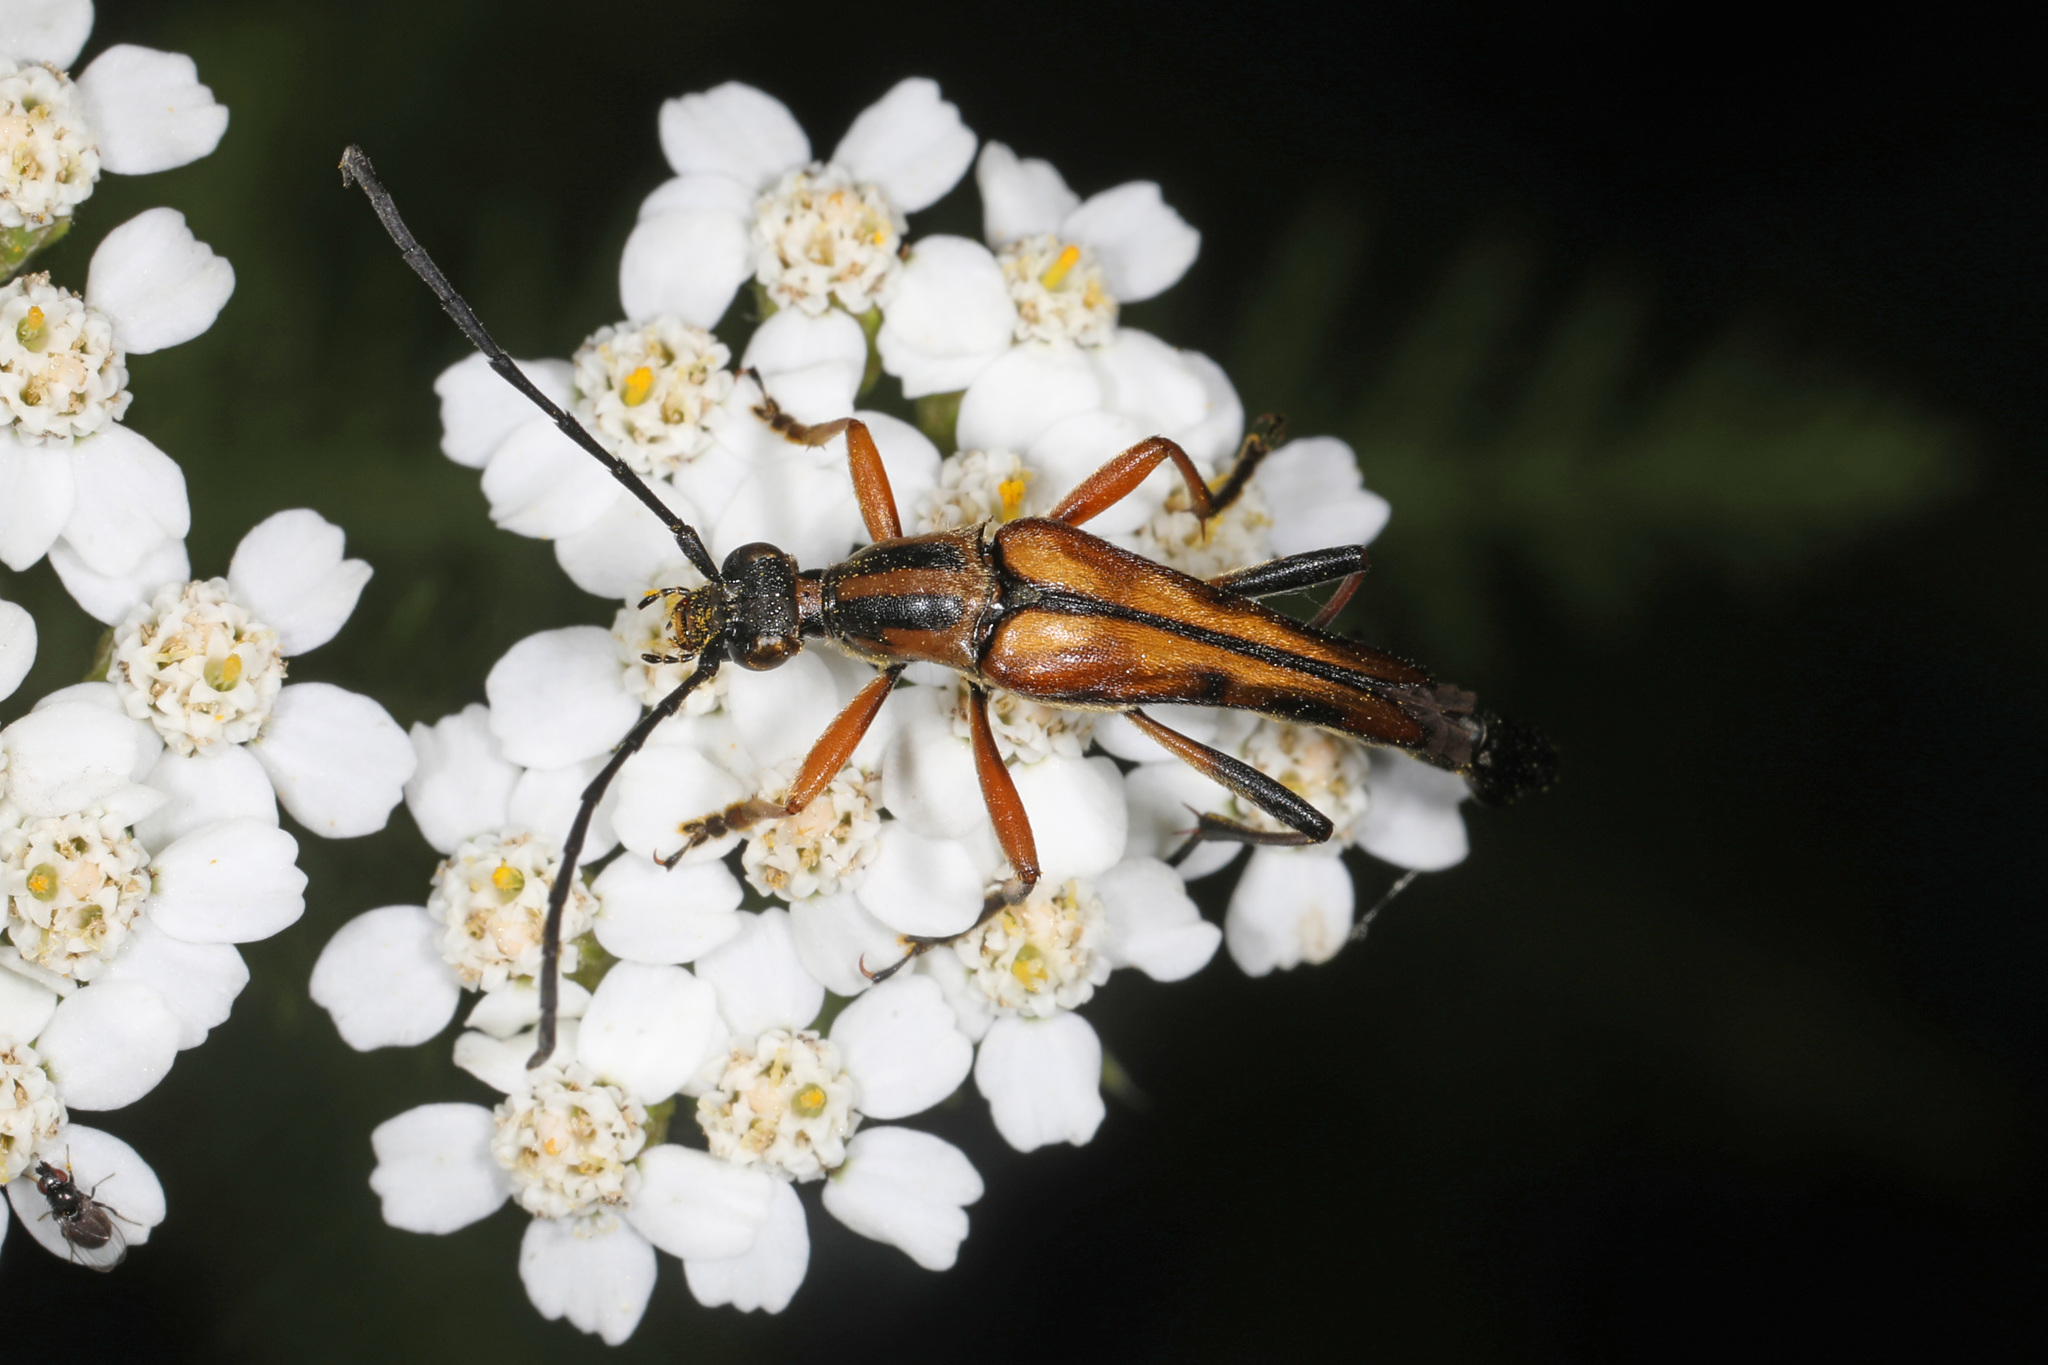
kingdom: Animalia
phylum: Arthropoda
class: Insecta
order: Coleoptera
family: Cerambycidae
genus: Strangalia
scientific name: Strangalia famelica
